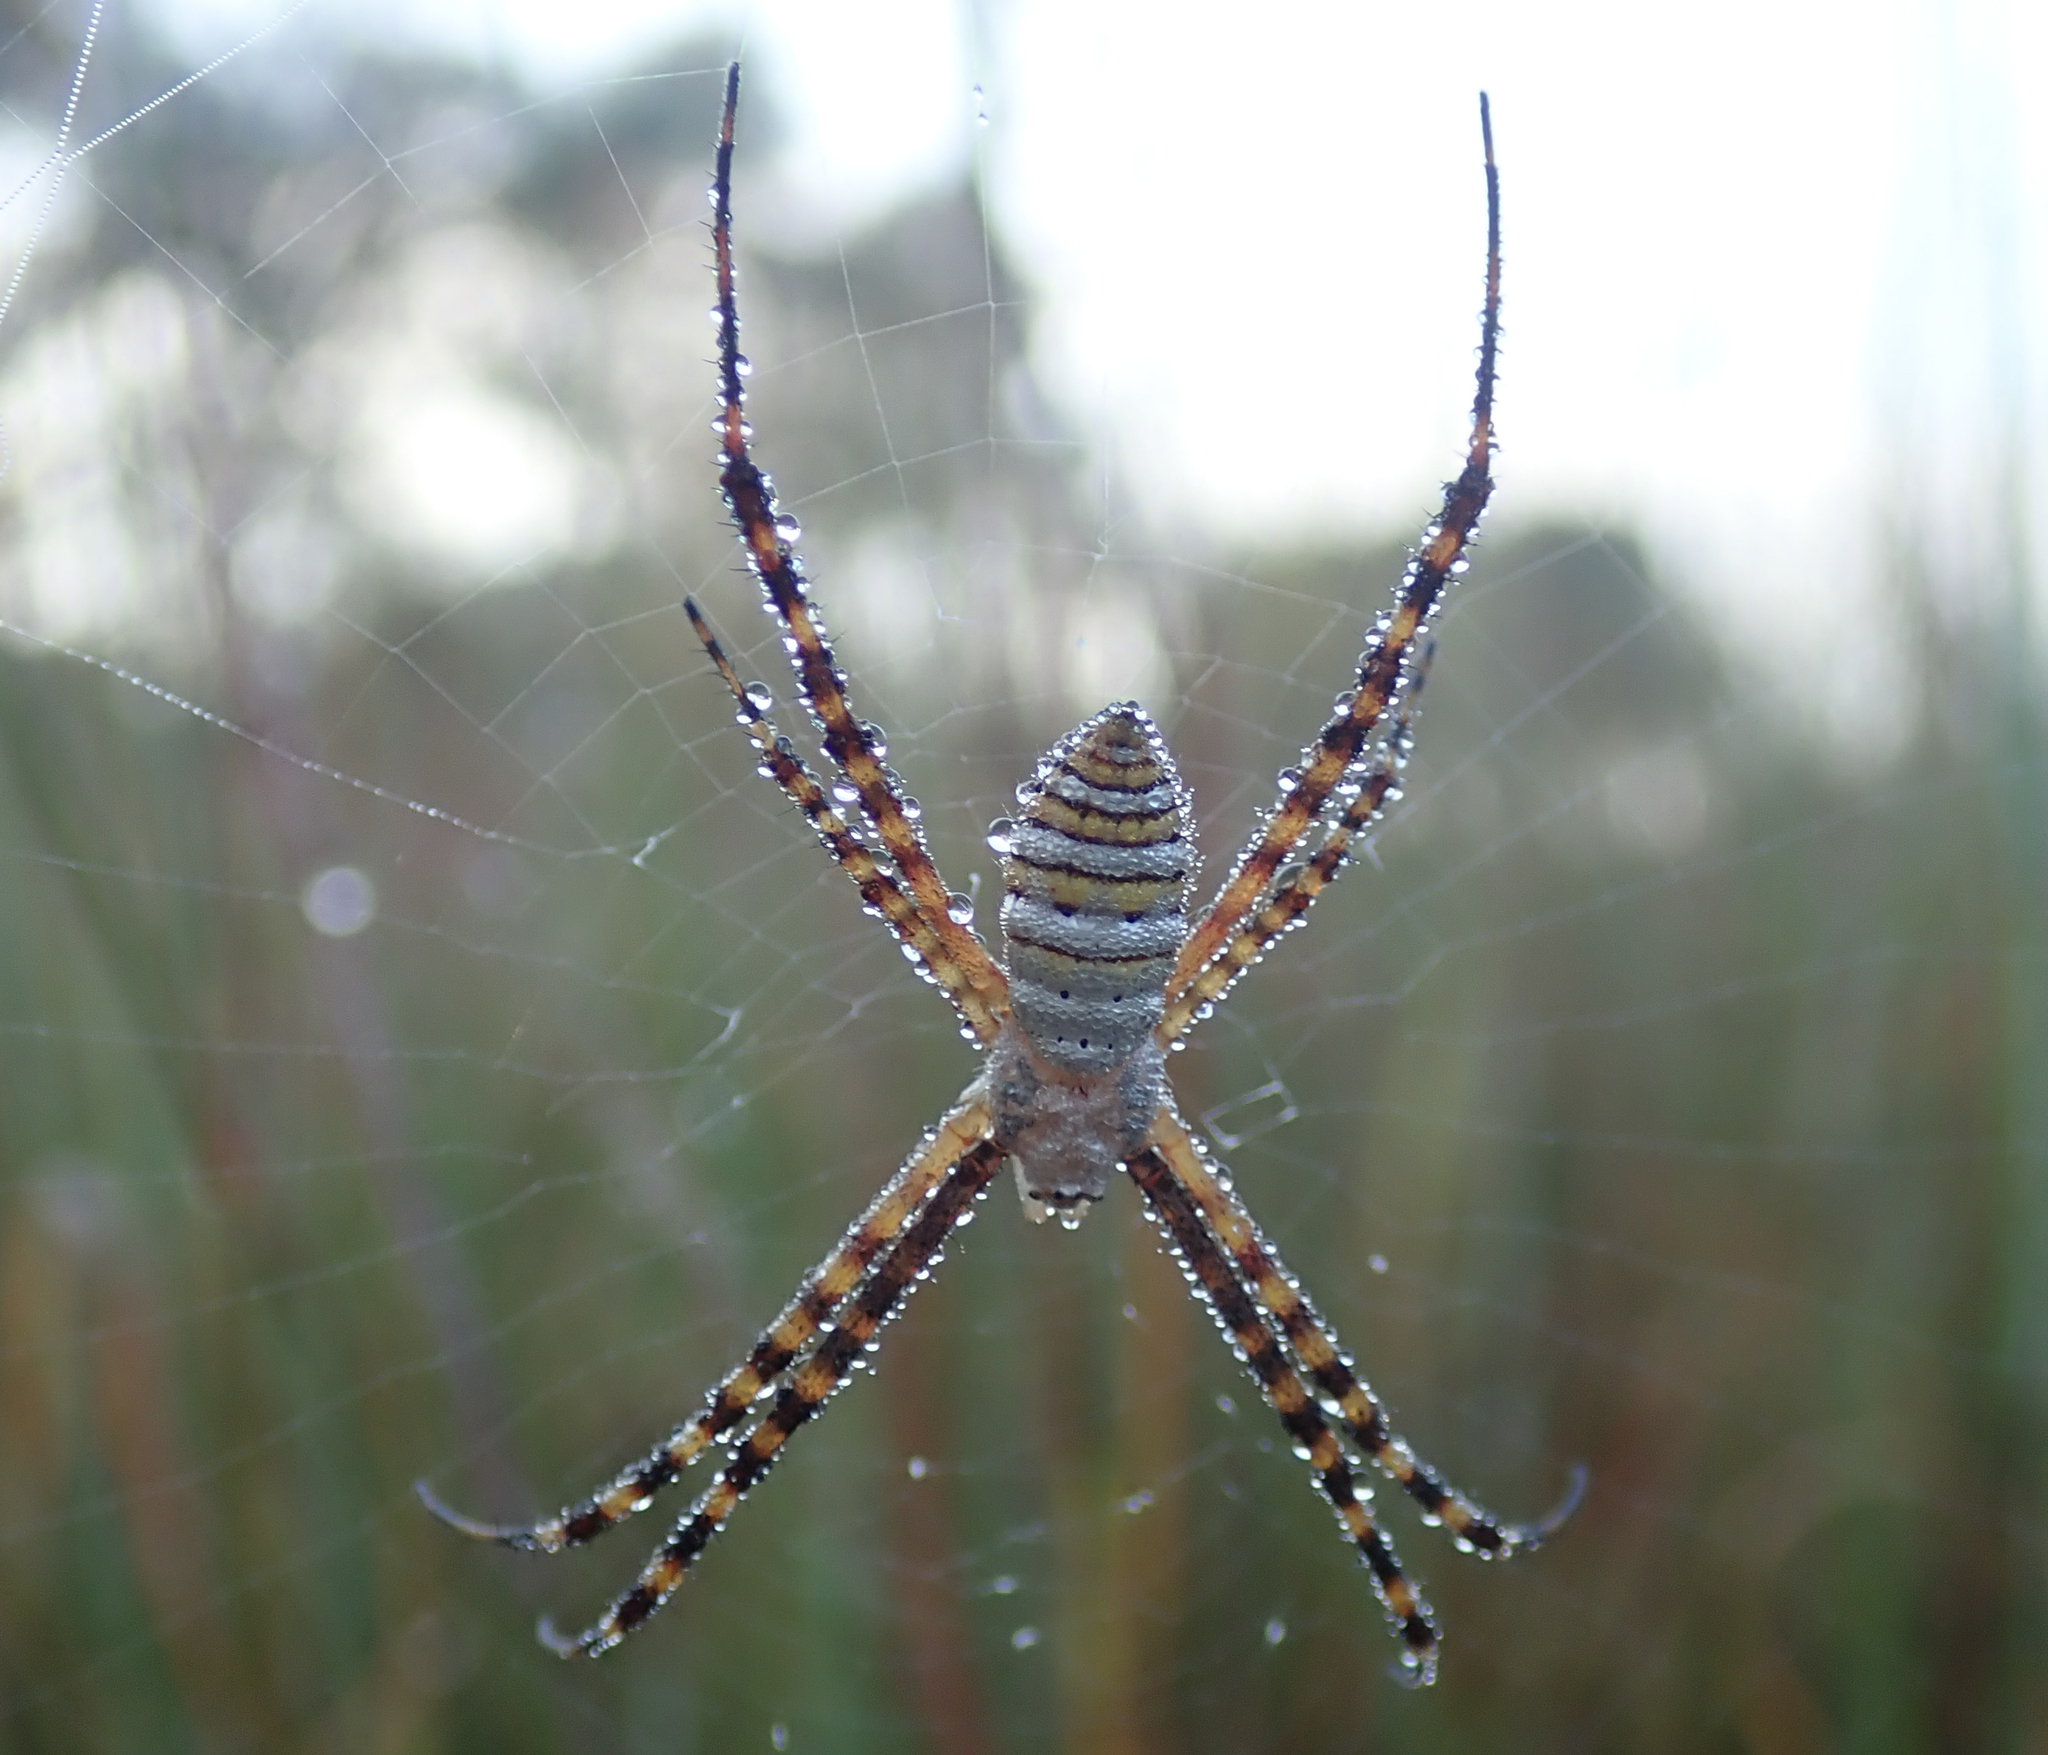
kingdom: Animalia
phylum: Arthropoda
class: Arachnida
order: Araneae
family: Araneidae
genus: Argiope
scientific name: Argiope trifasciata
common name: Banded garden spider
